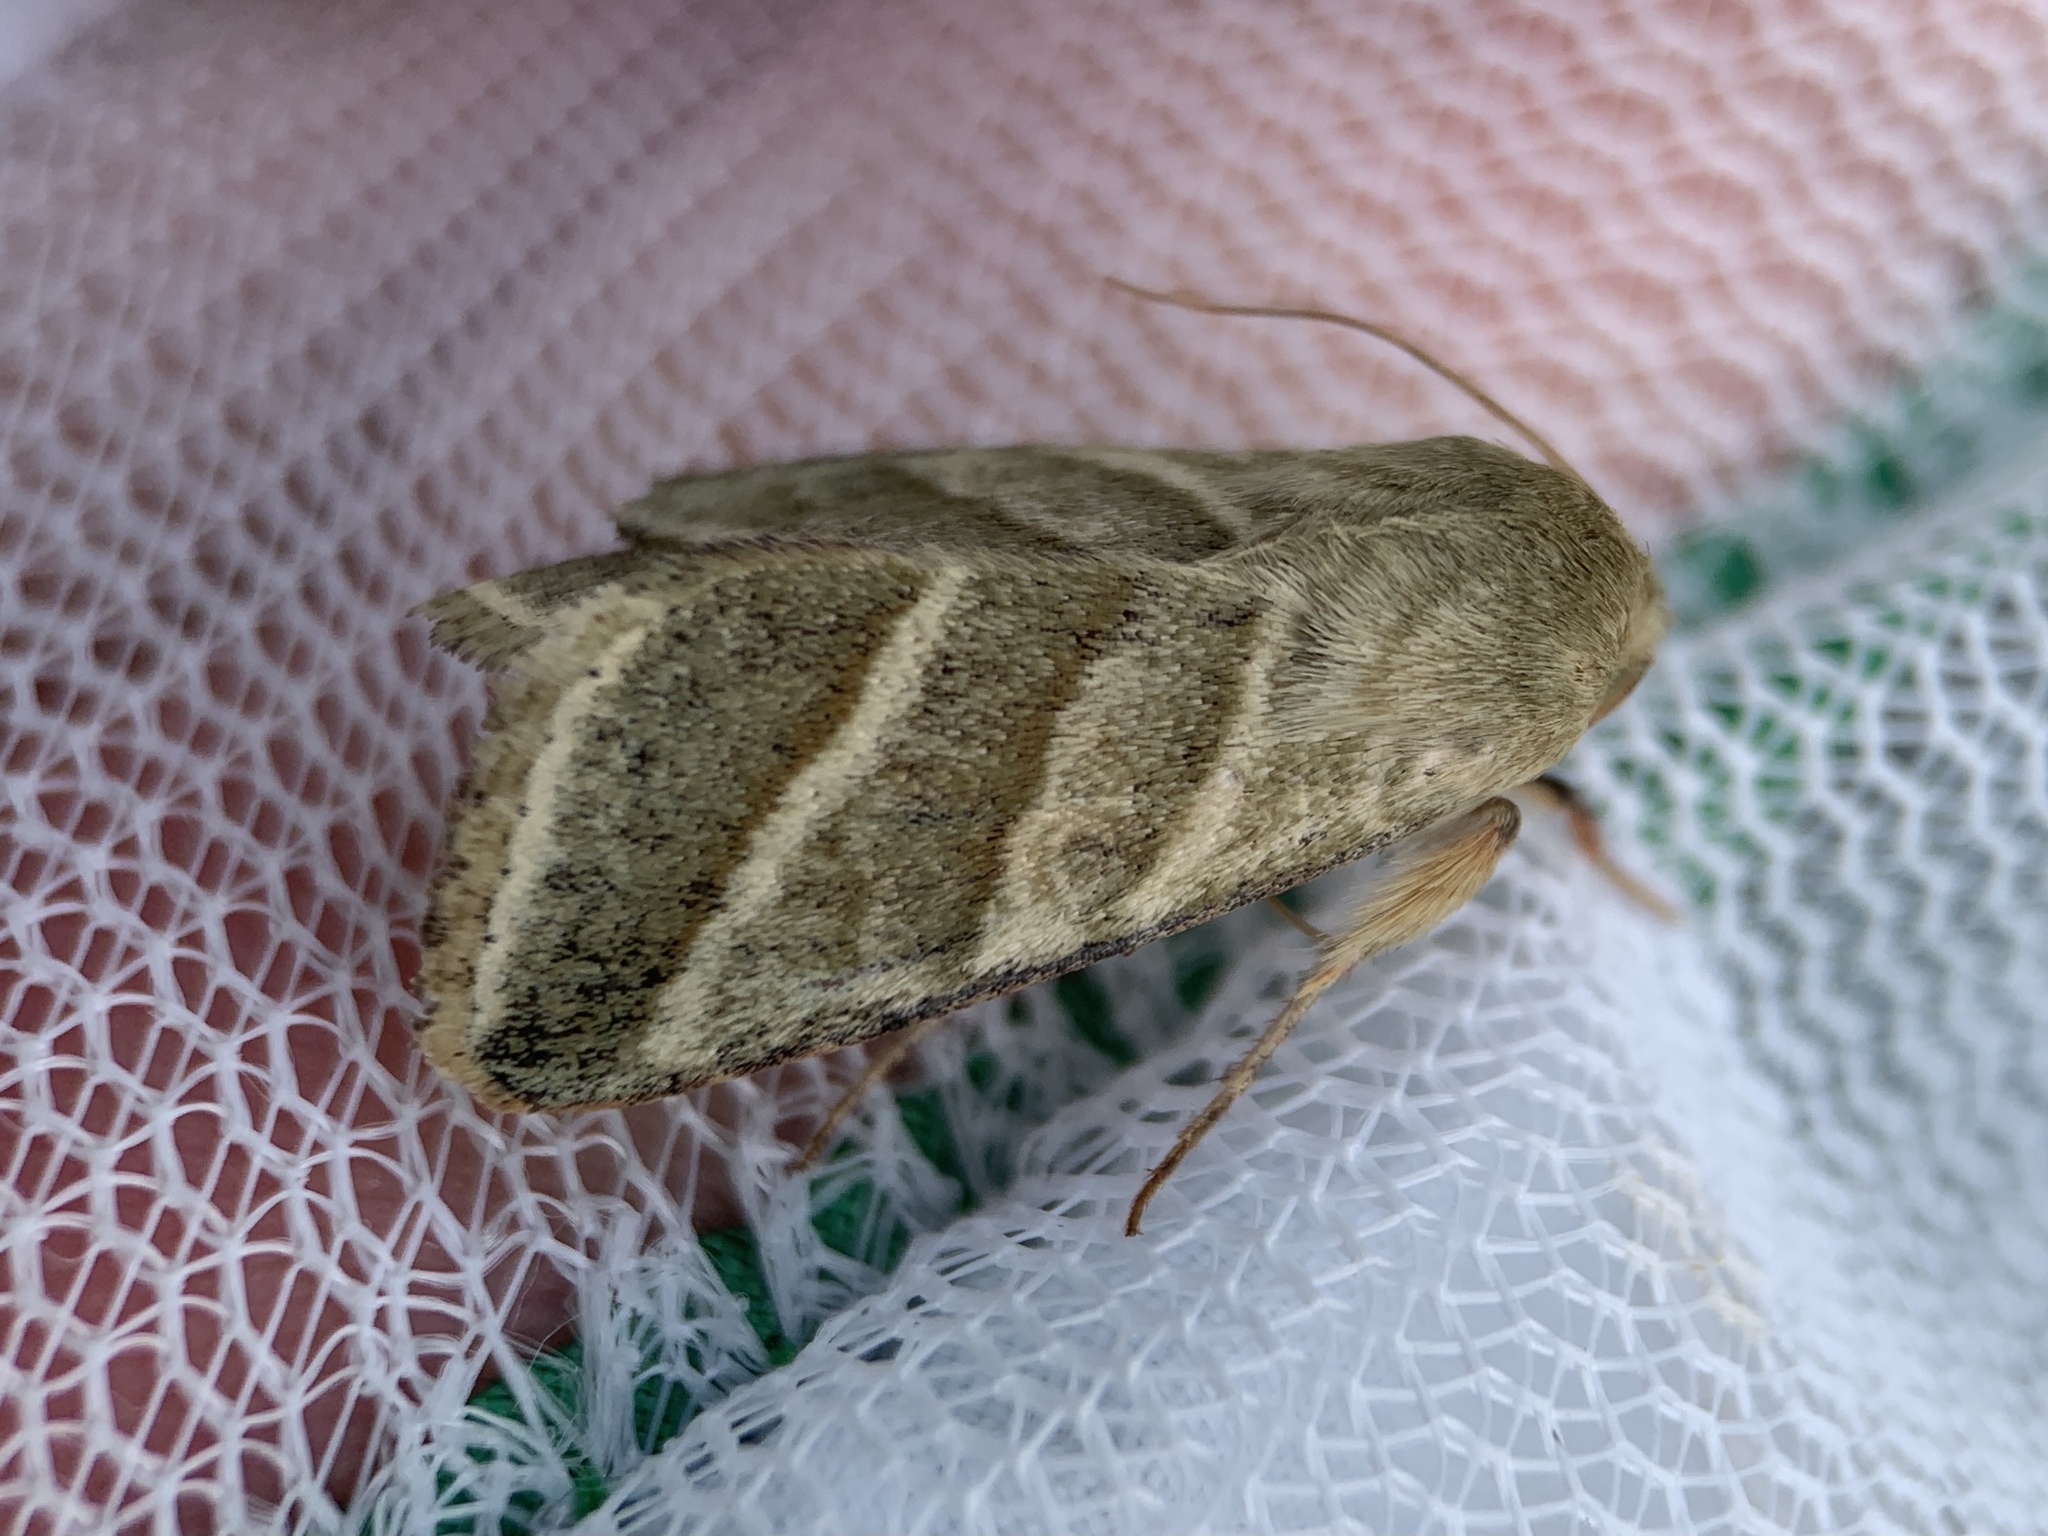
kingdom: Animalia
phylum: Arthropoda
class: Insecta
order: Lepidoptera
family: Noctuidae
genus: Chloridea
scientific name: Chloridea virescens
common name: Tobacco budworm
